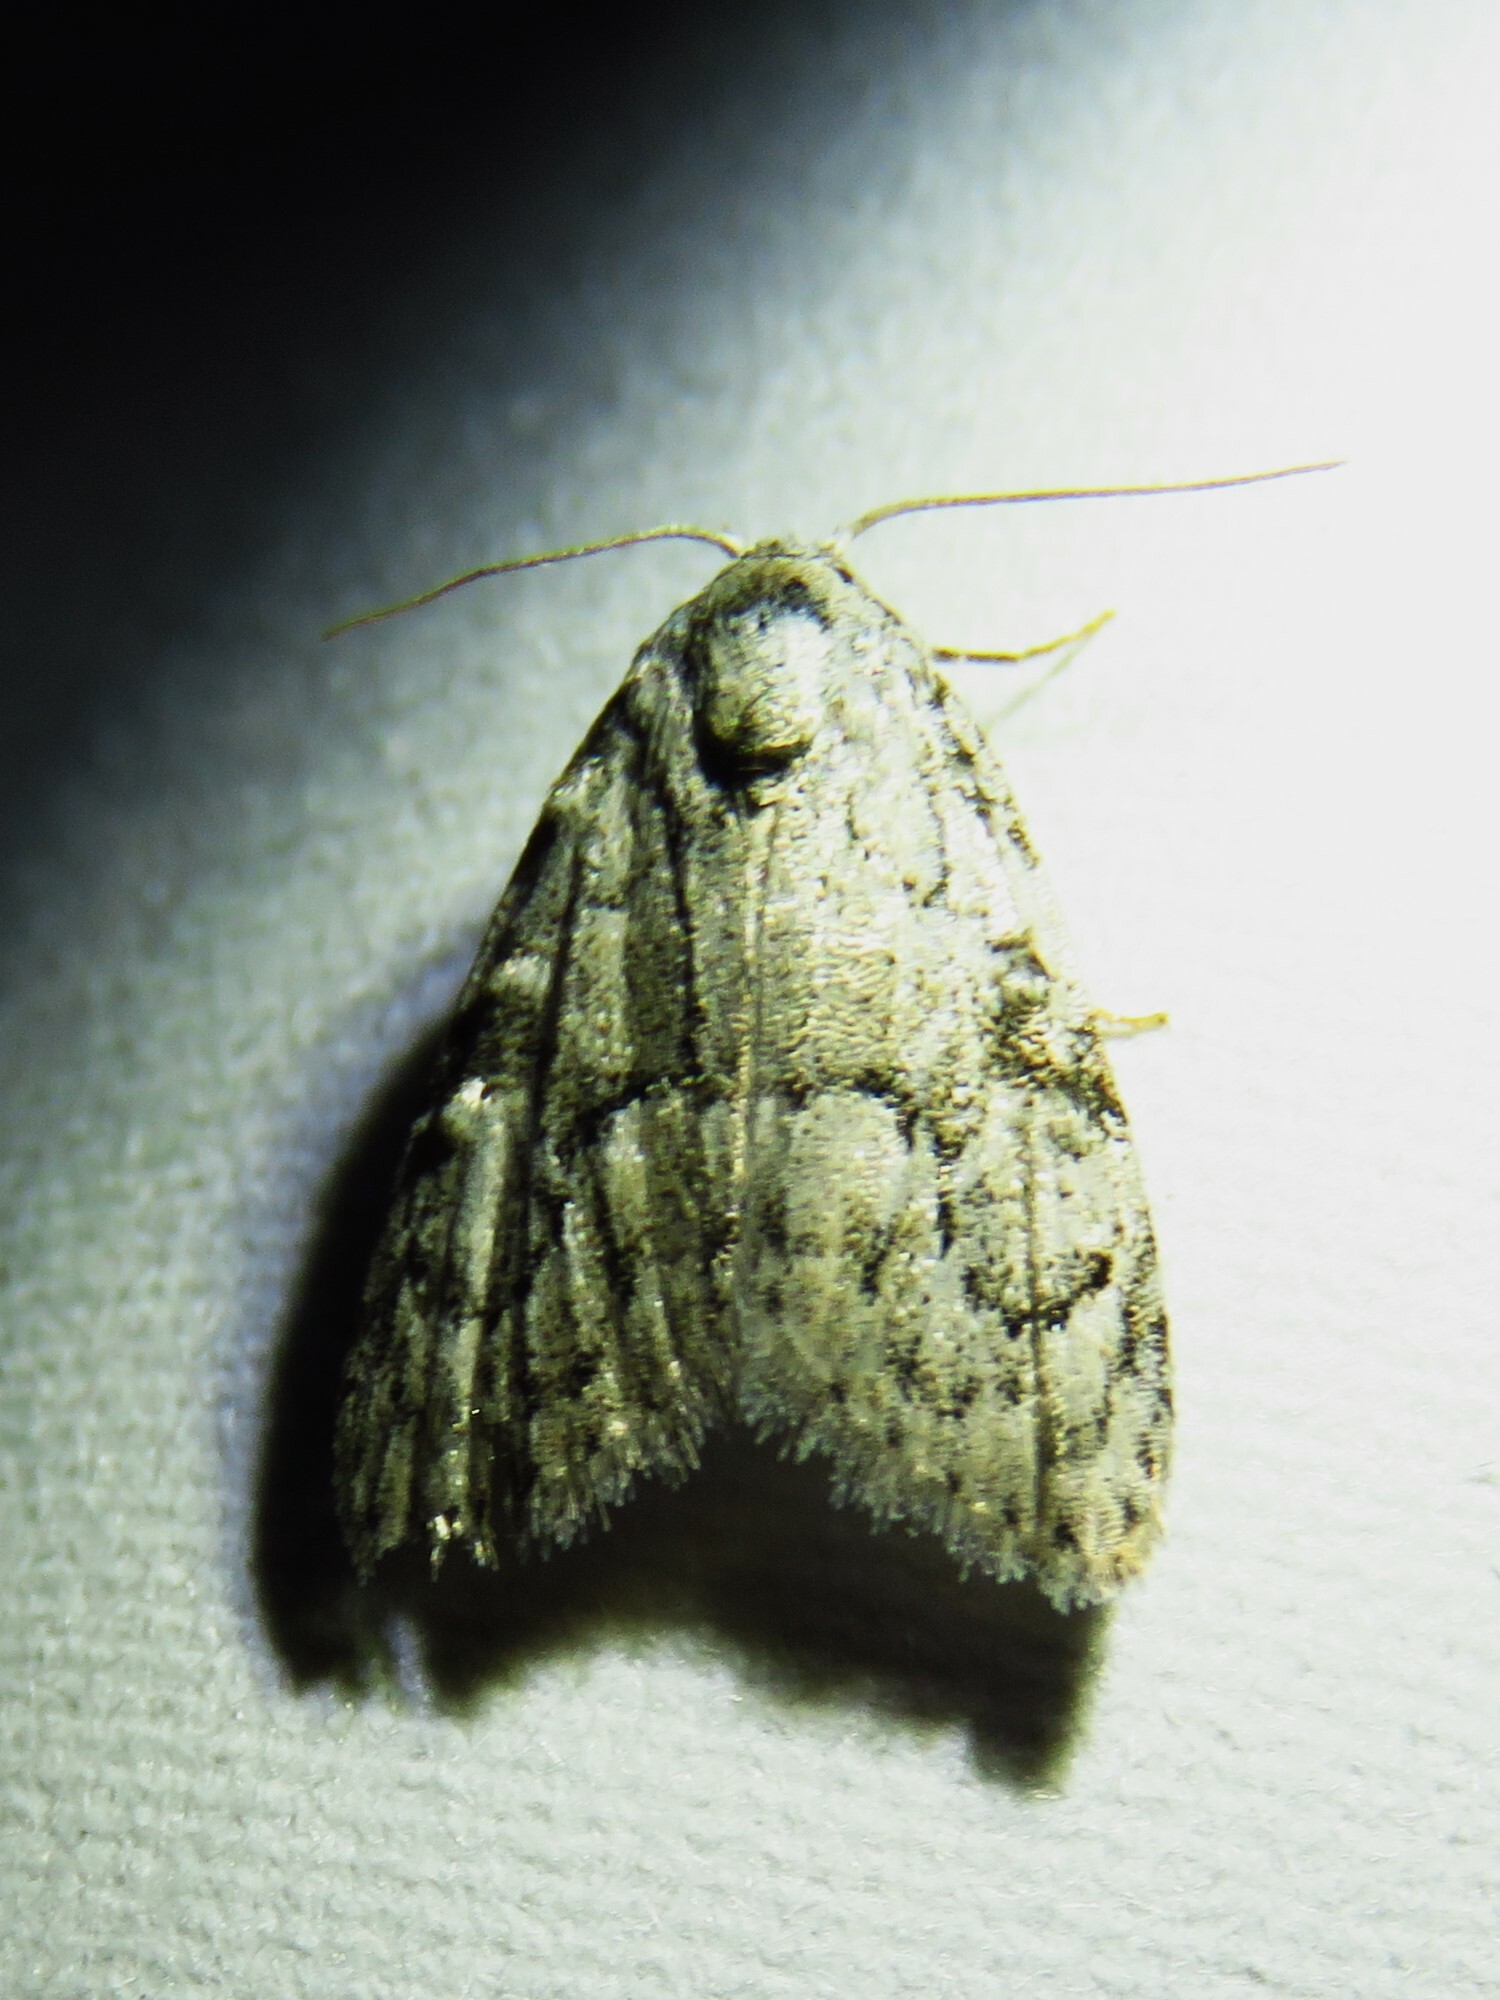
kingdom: Animalia
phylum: Arthropoda
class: Insecta
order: Lepidoptera
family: Nolidae
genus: Meganola
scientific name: Meganola minuscula
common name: Confused meganola moth
